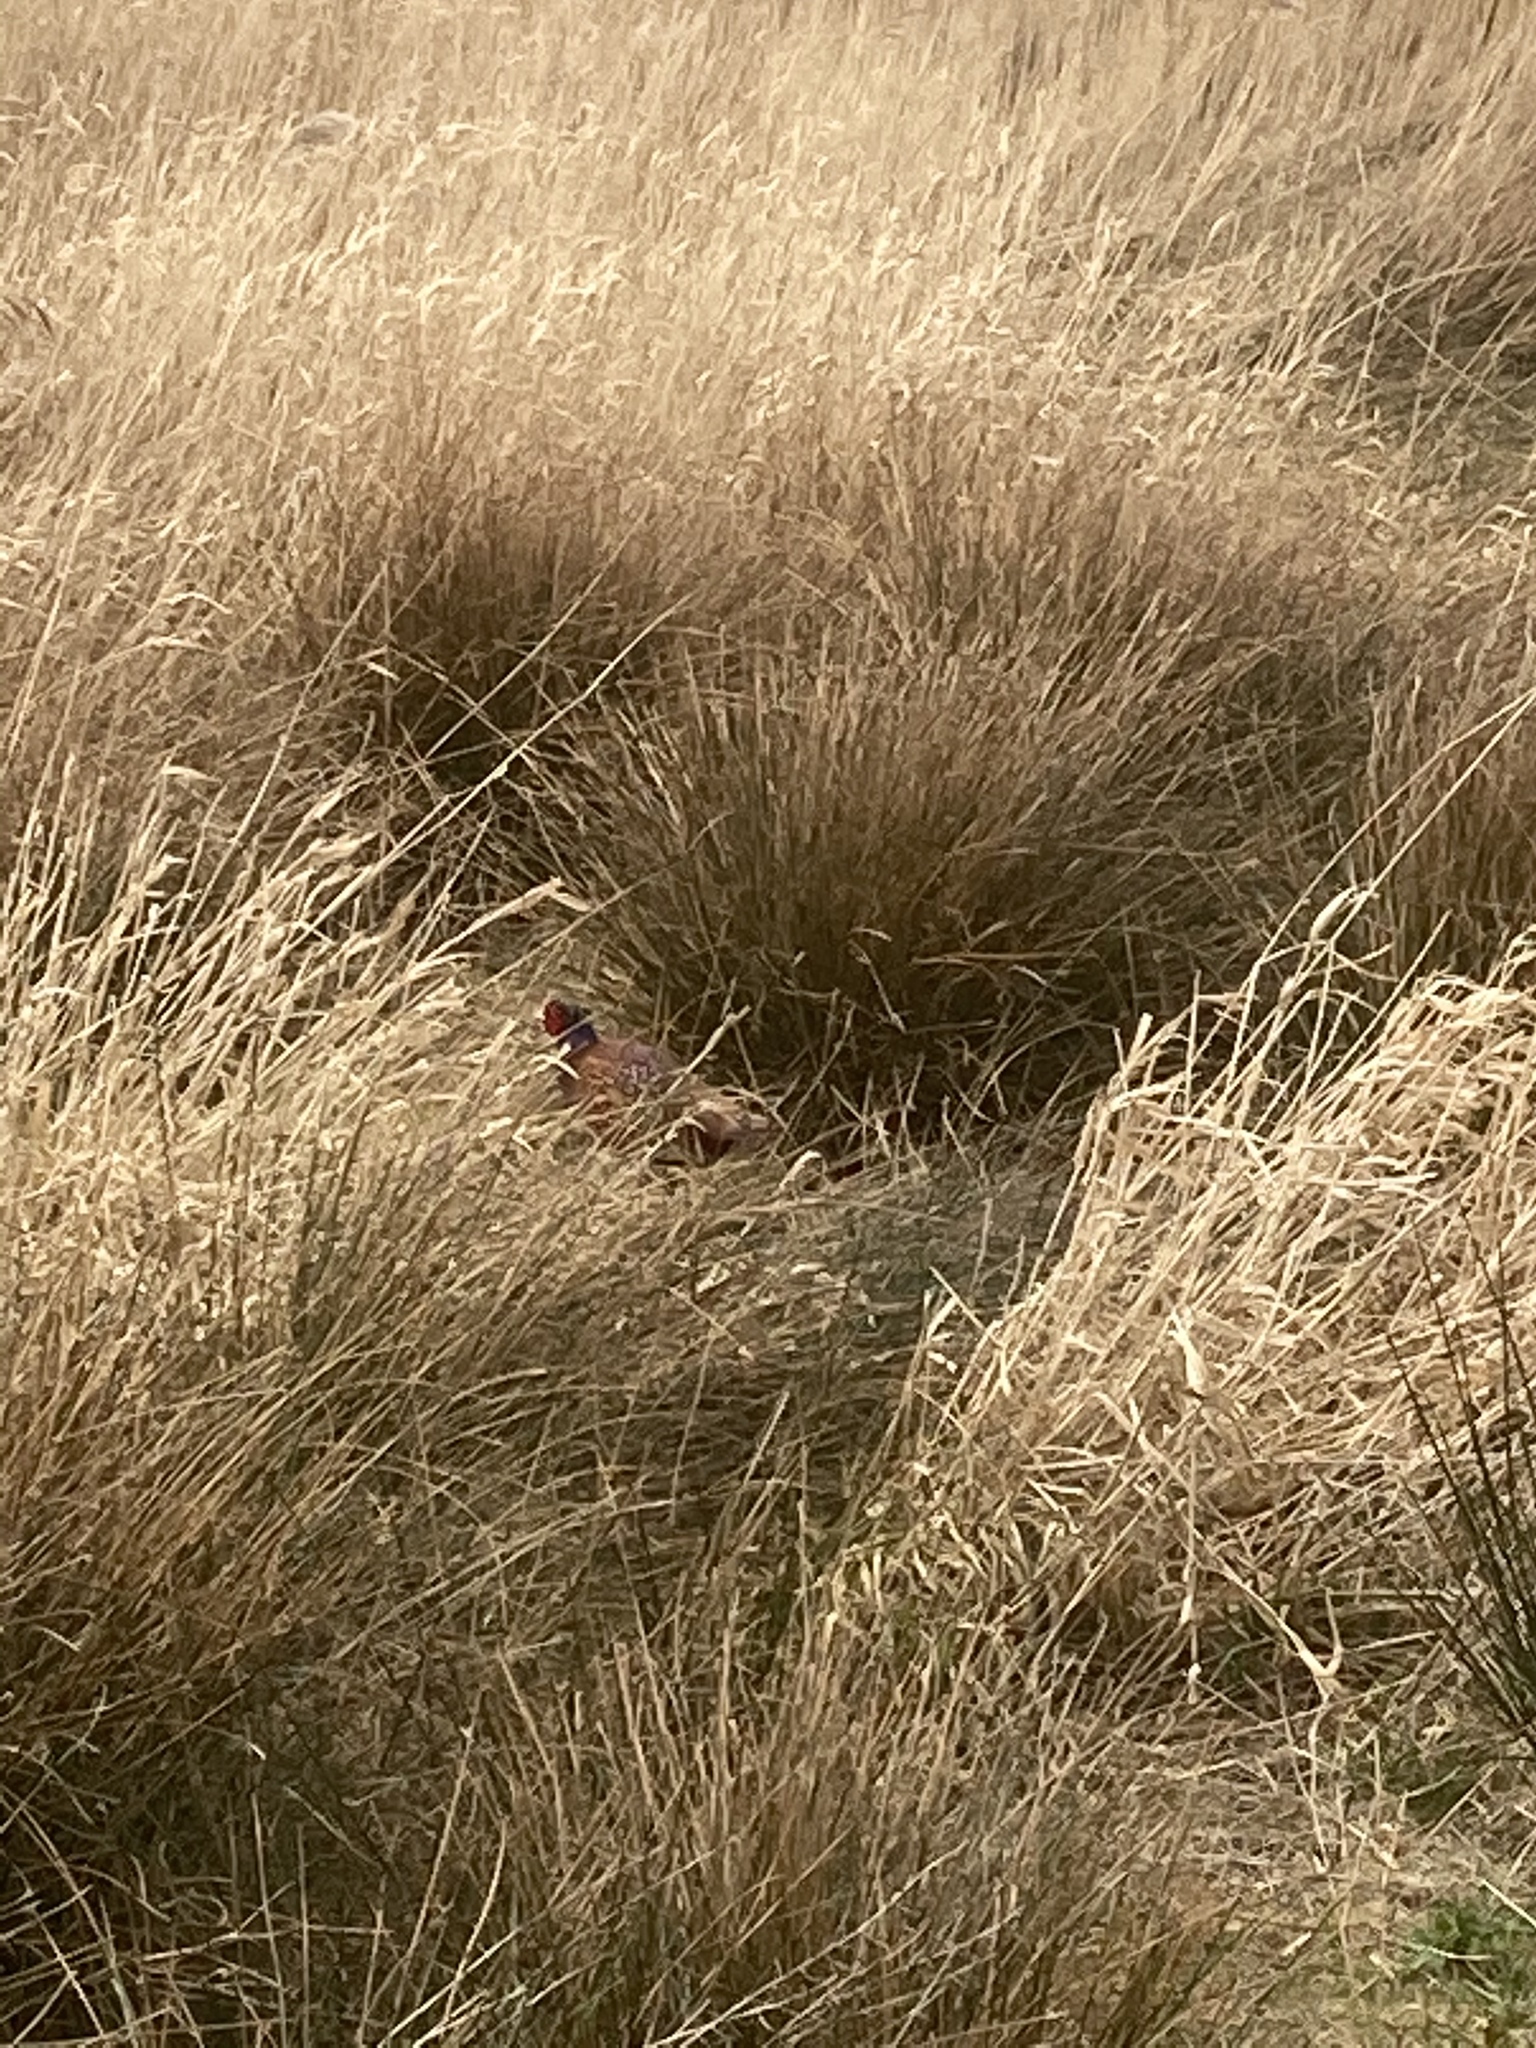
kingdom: Animalia
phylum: Chordata
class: Aves
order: Galliformes
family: Phasianidae
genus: Phasianus
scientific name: Phasianus colchicus
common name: Common pheasant
